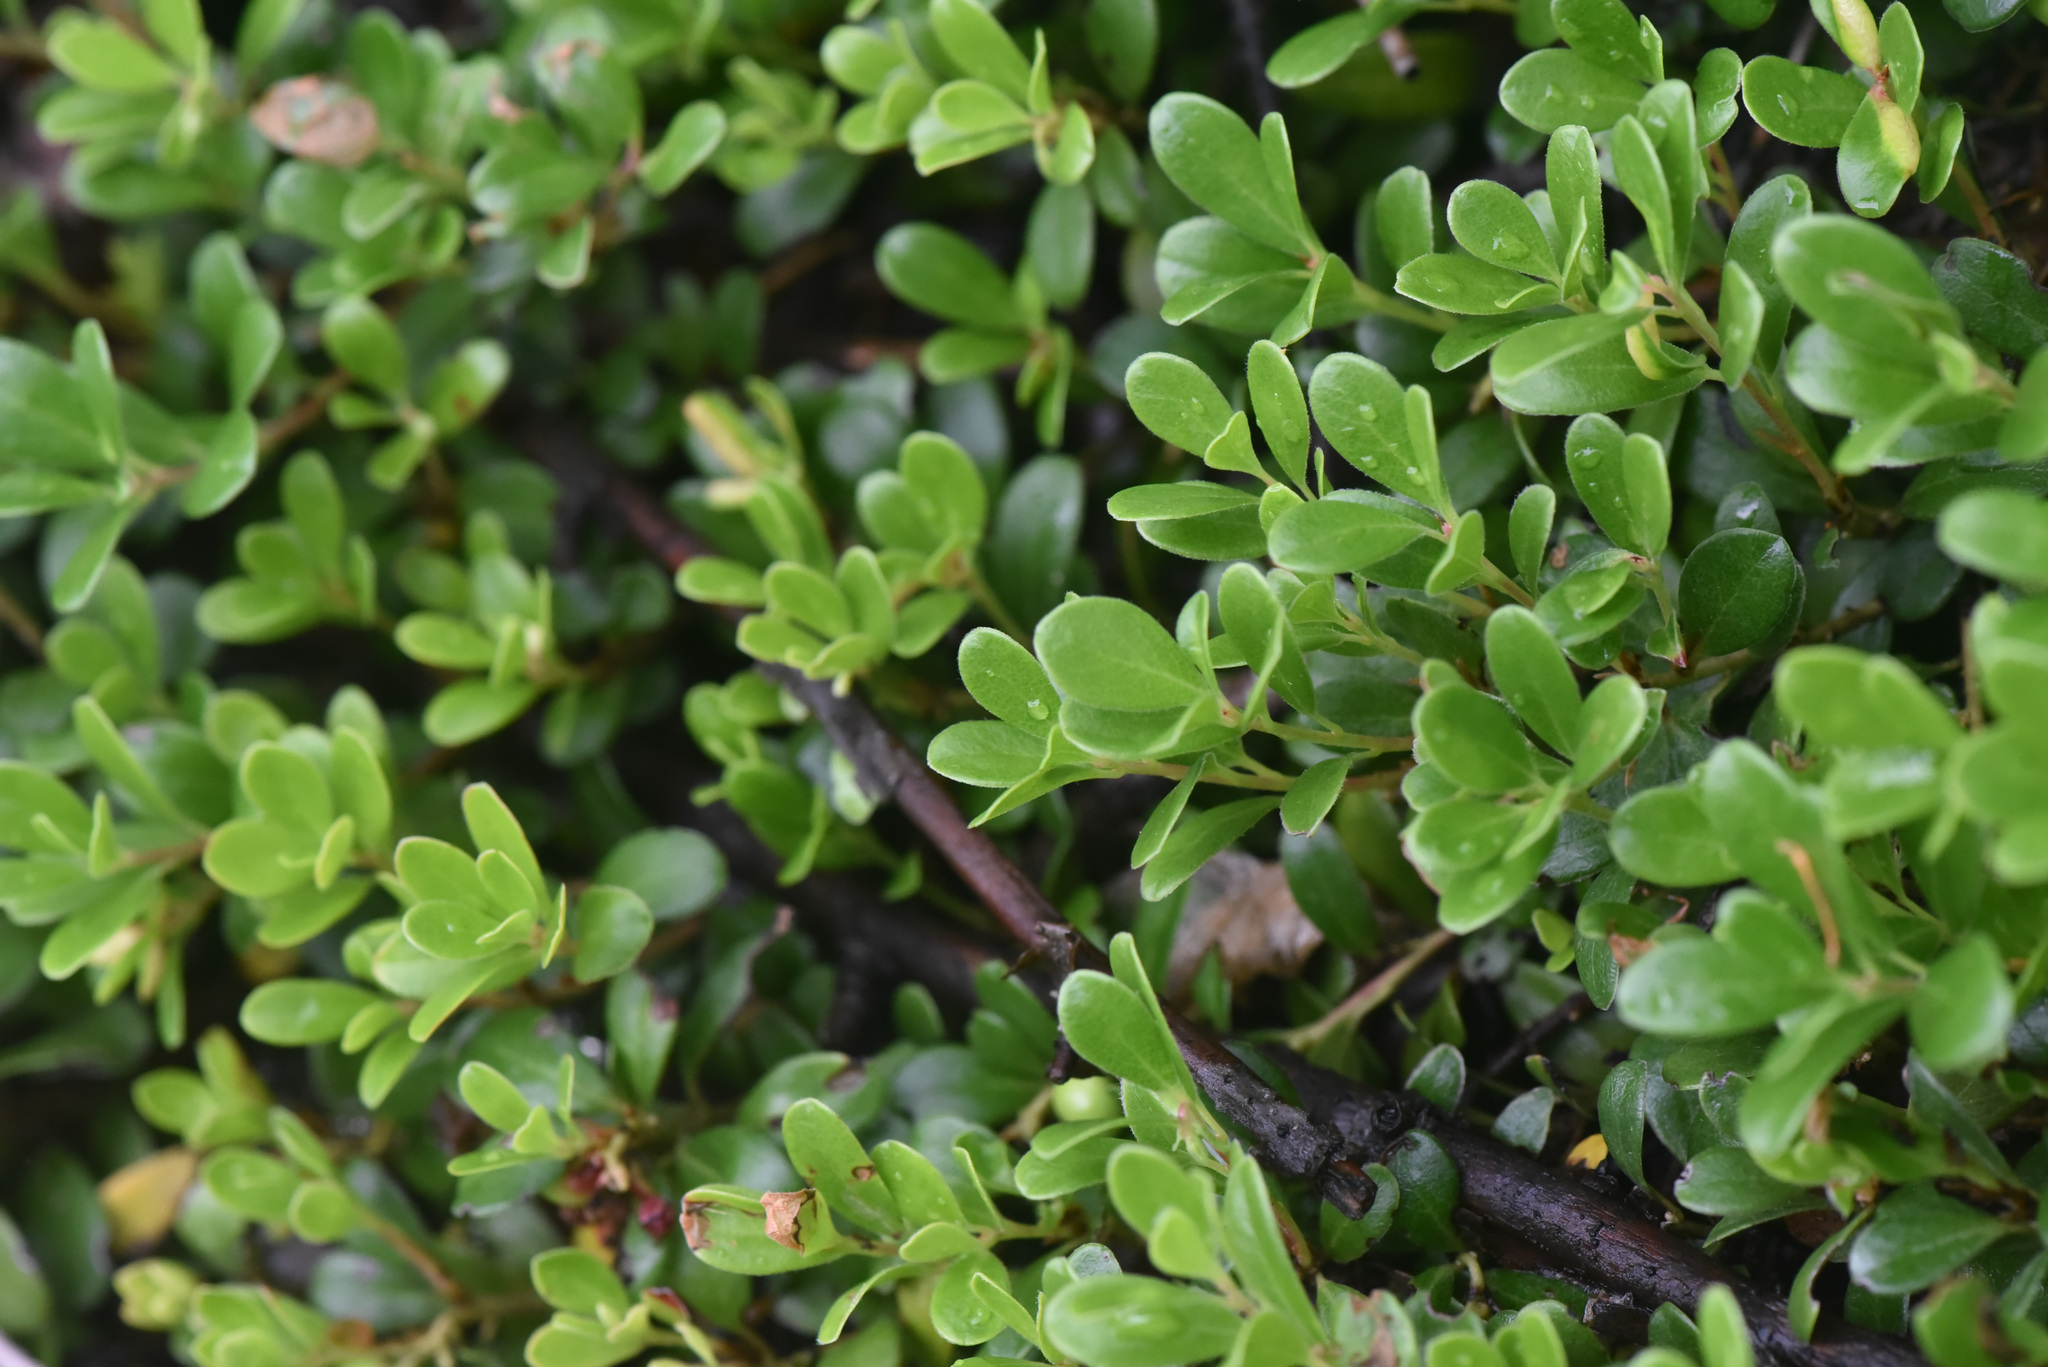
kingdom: Plantae
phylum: Tracheophyta
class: Magnoliopsida
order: Ericales
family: Ericaceae
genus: Arctostaphylos
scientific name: Arctostaphylos uva-ursi
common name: Bearberry
